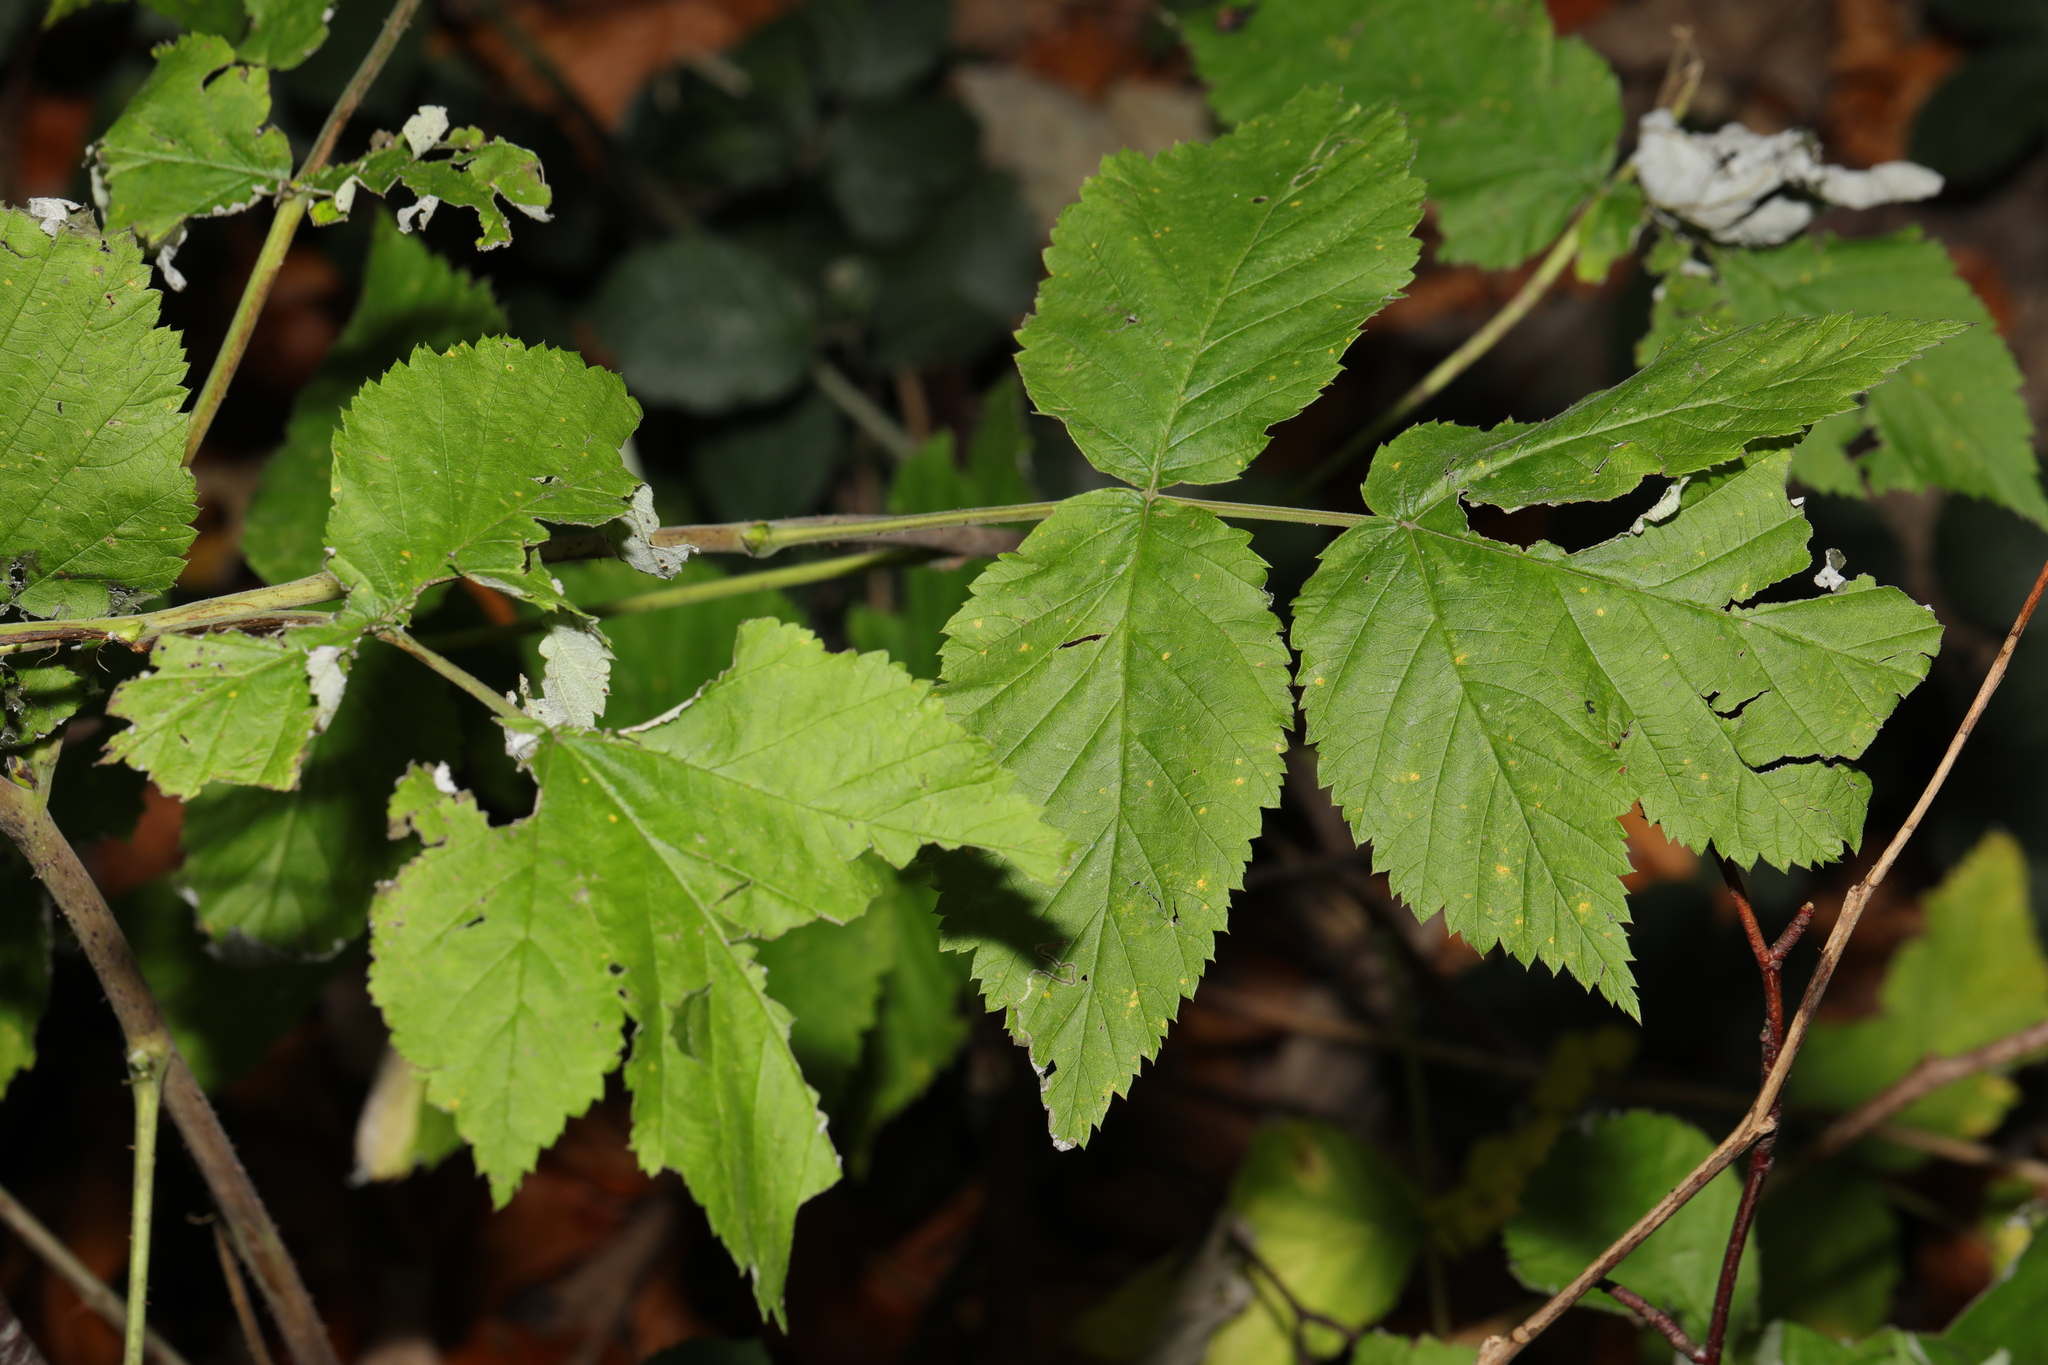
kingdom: Plantae
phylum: Tracheophyta
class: Magnoliopsida
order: Rosales
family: Rosaceae
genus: Rubus
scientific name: Rubus idaeus
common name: Raspberry
